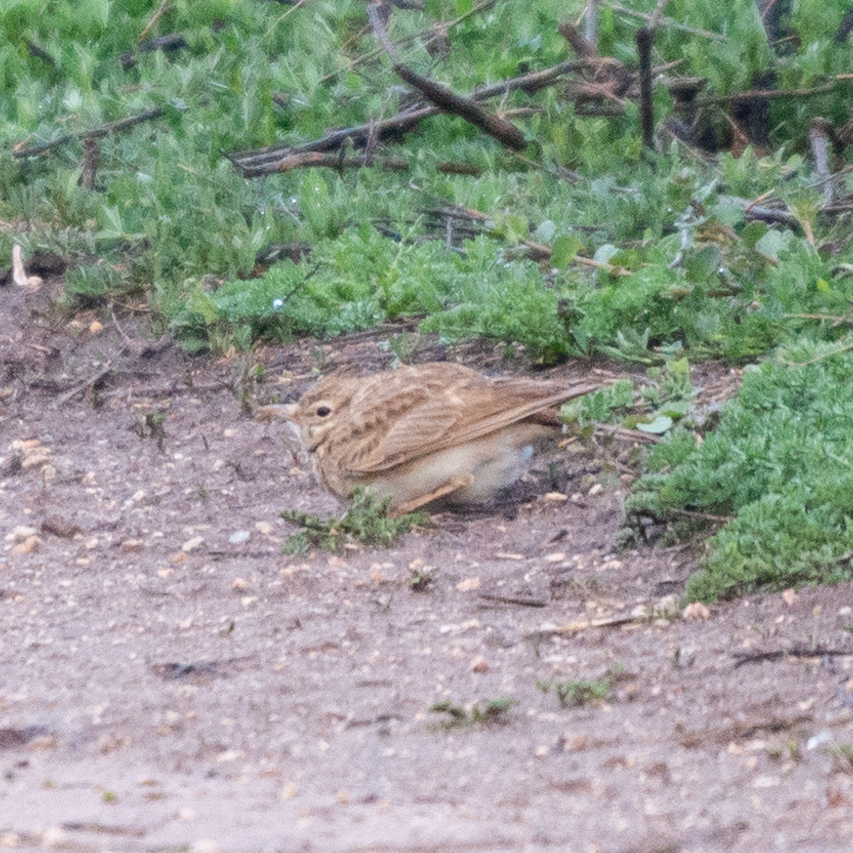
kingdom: Animalia
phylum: Chordata
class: Aves
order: Passeriformes
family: Alaudidae
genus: Galerida
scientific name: Galerida cristata
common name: Crested lark
